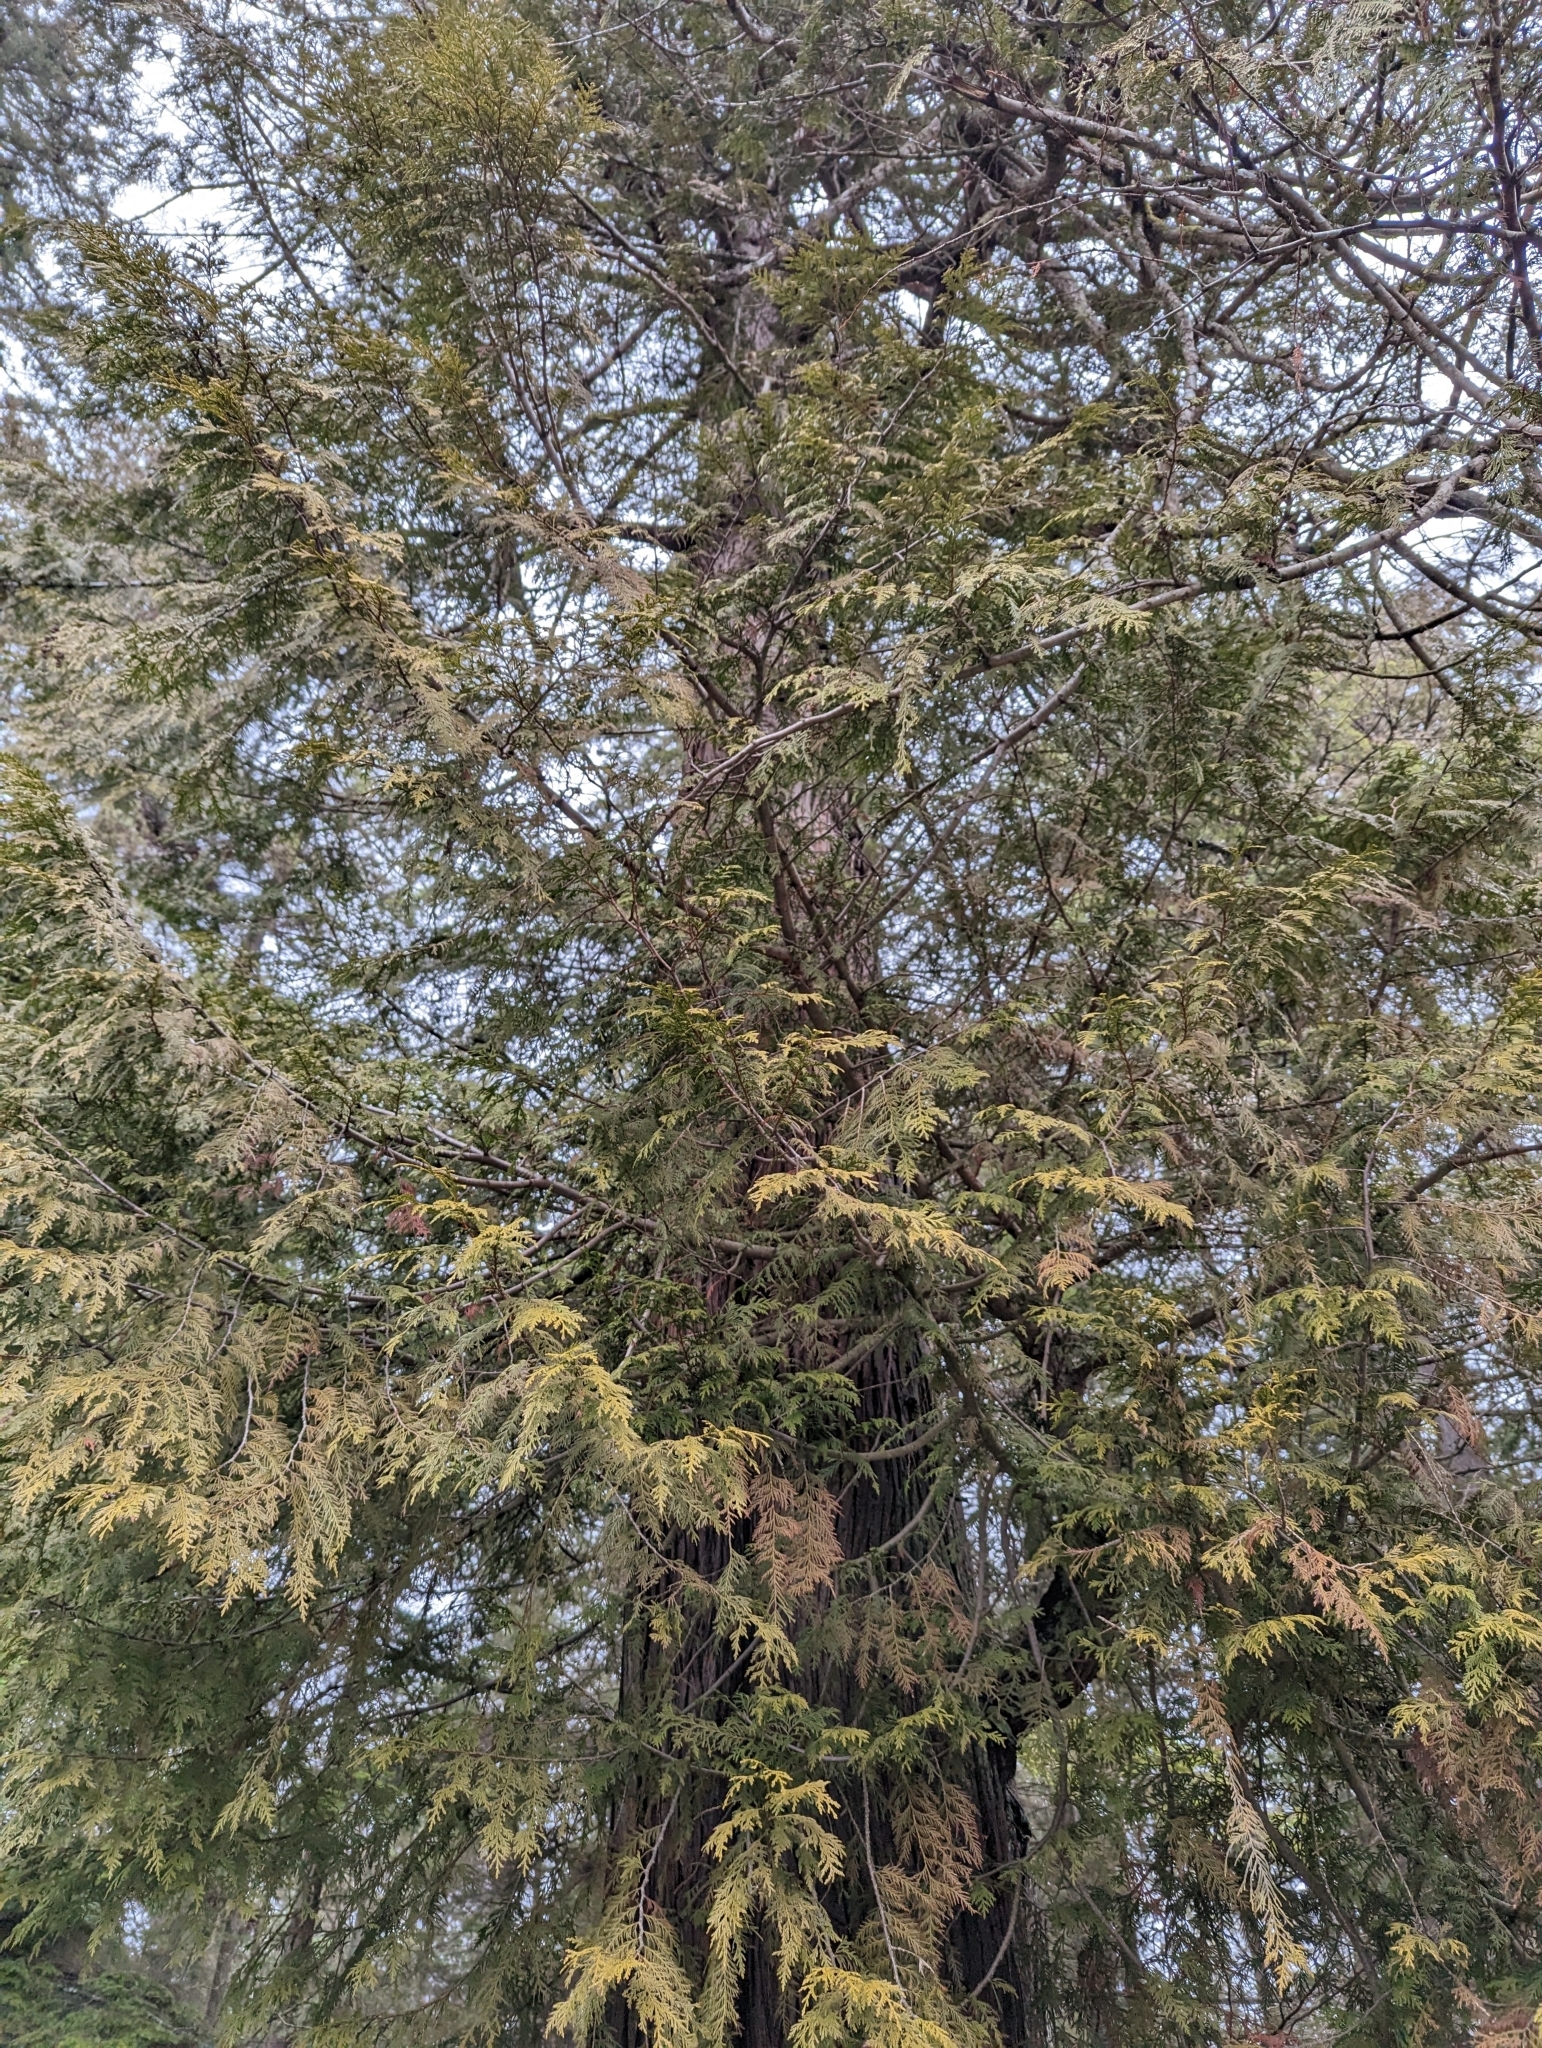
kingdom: Plantae
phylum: Tracheophyta
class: Pinopsida
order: Pinales
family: Cupressaceae
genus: Thuja
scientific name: Thuja plicata
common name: Western red-cedar
